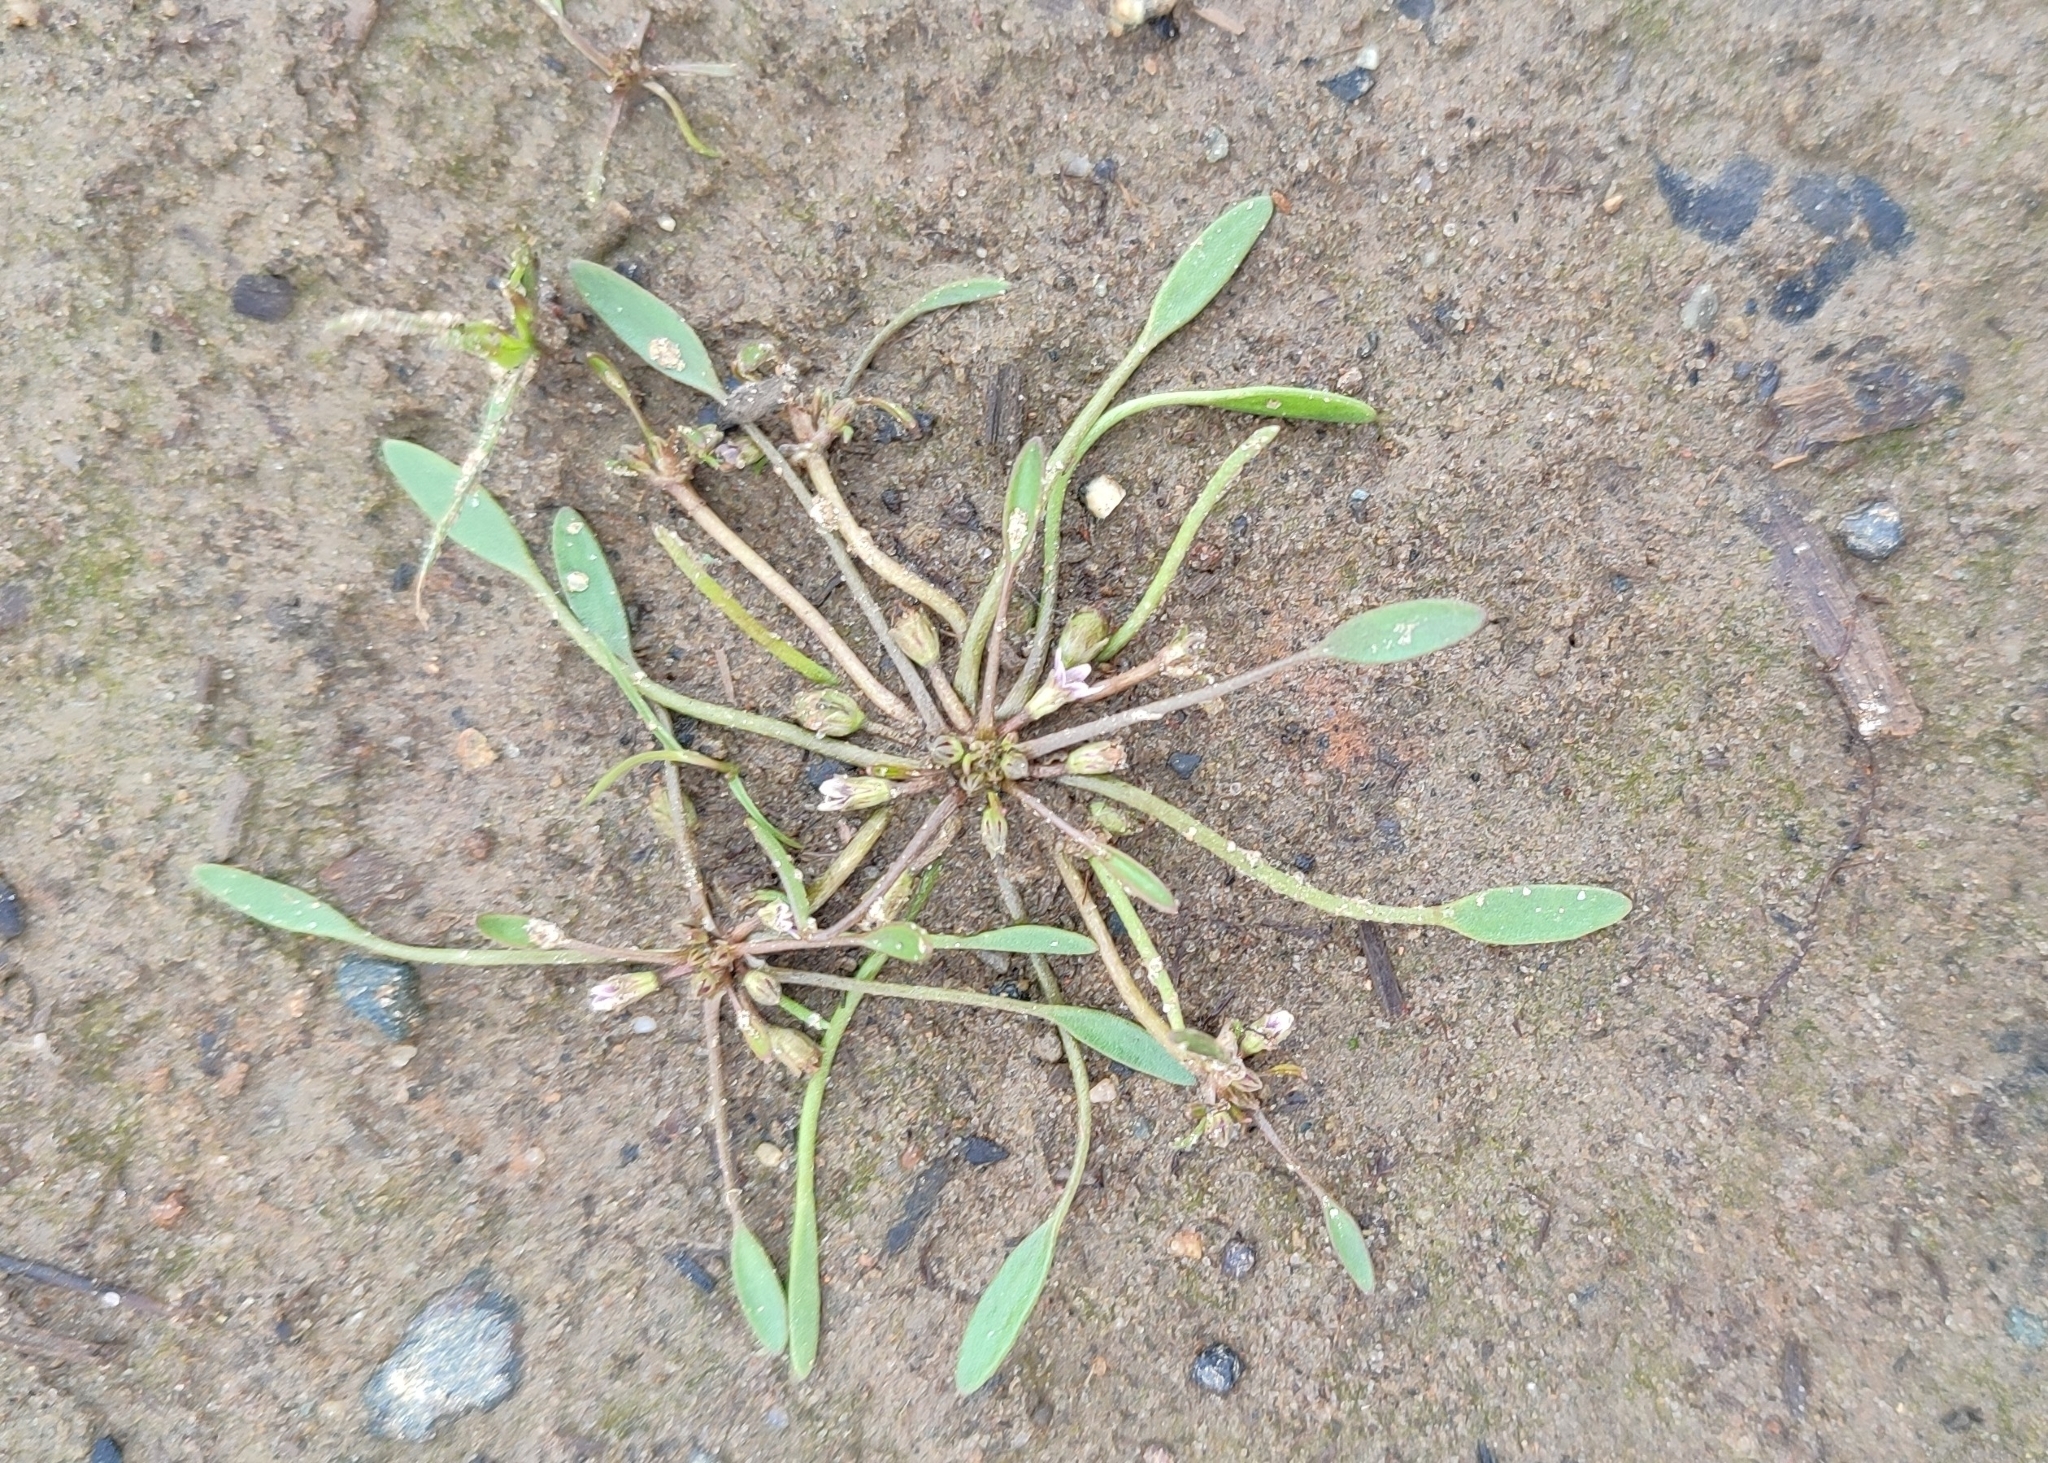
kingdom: Plantae
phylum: Tracheophyta
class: Magnoliopsida
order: Lamiales
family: Scrophulariaceae
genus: Limosella
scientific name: Limosella aquatica
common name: Mudwort
